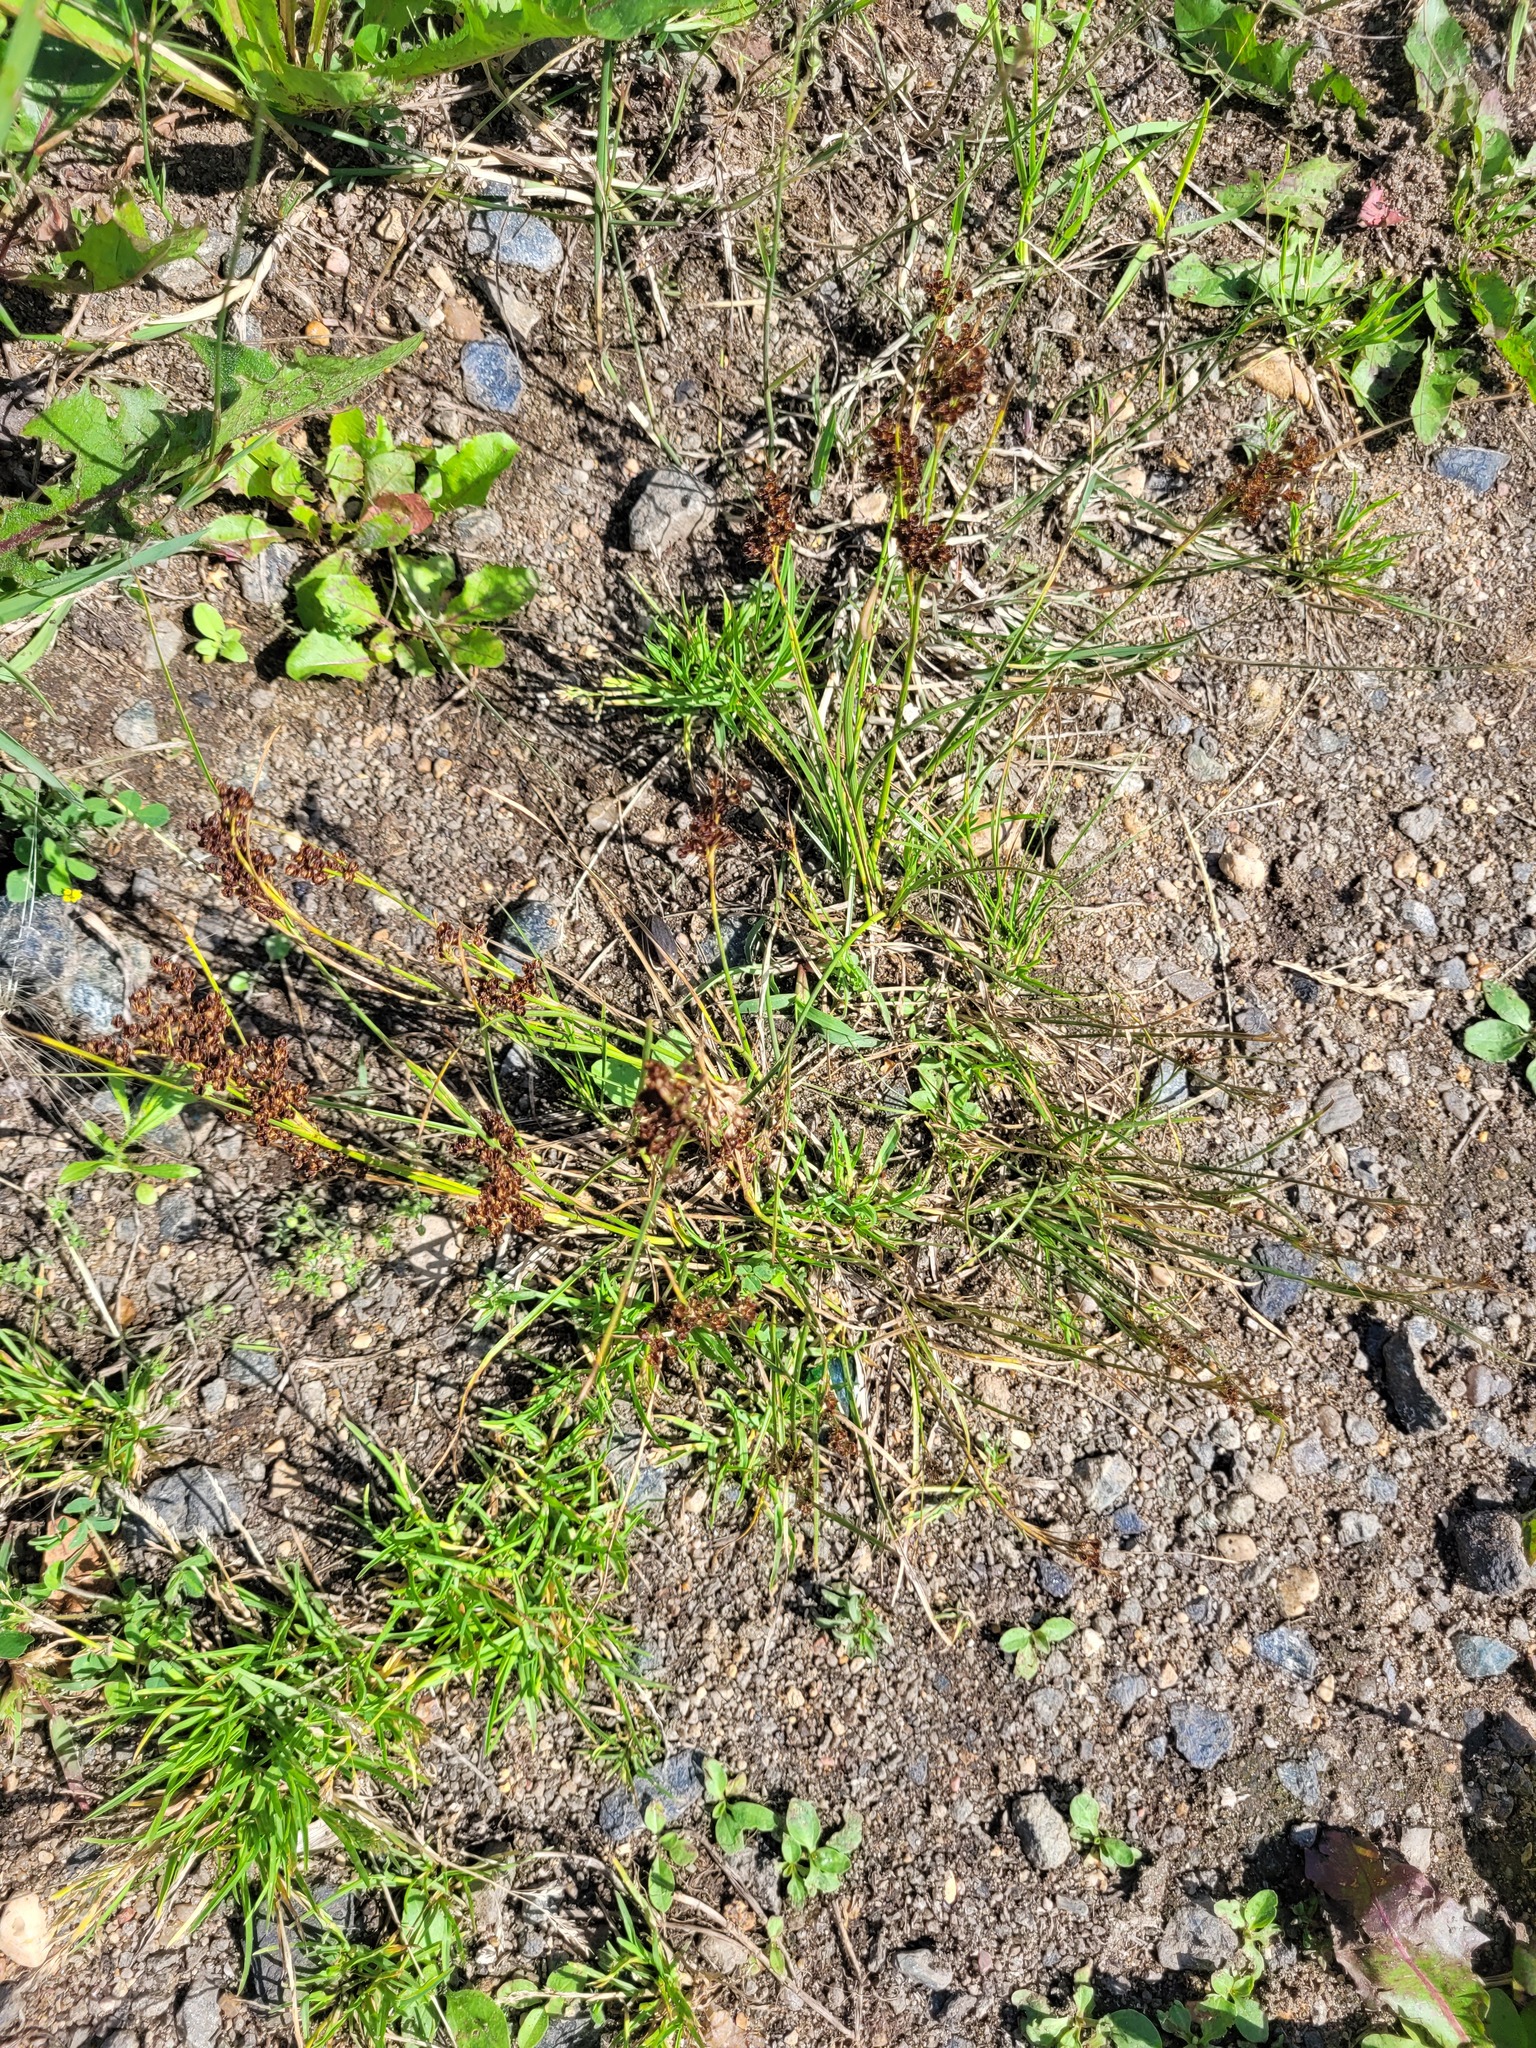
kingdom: Plantae
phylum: Tracheophyta
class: Liliopsida
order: Poales
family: Juncaceae
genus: Juncus
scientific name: Juncus compressus
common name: Round-fruited rush
